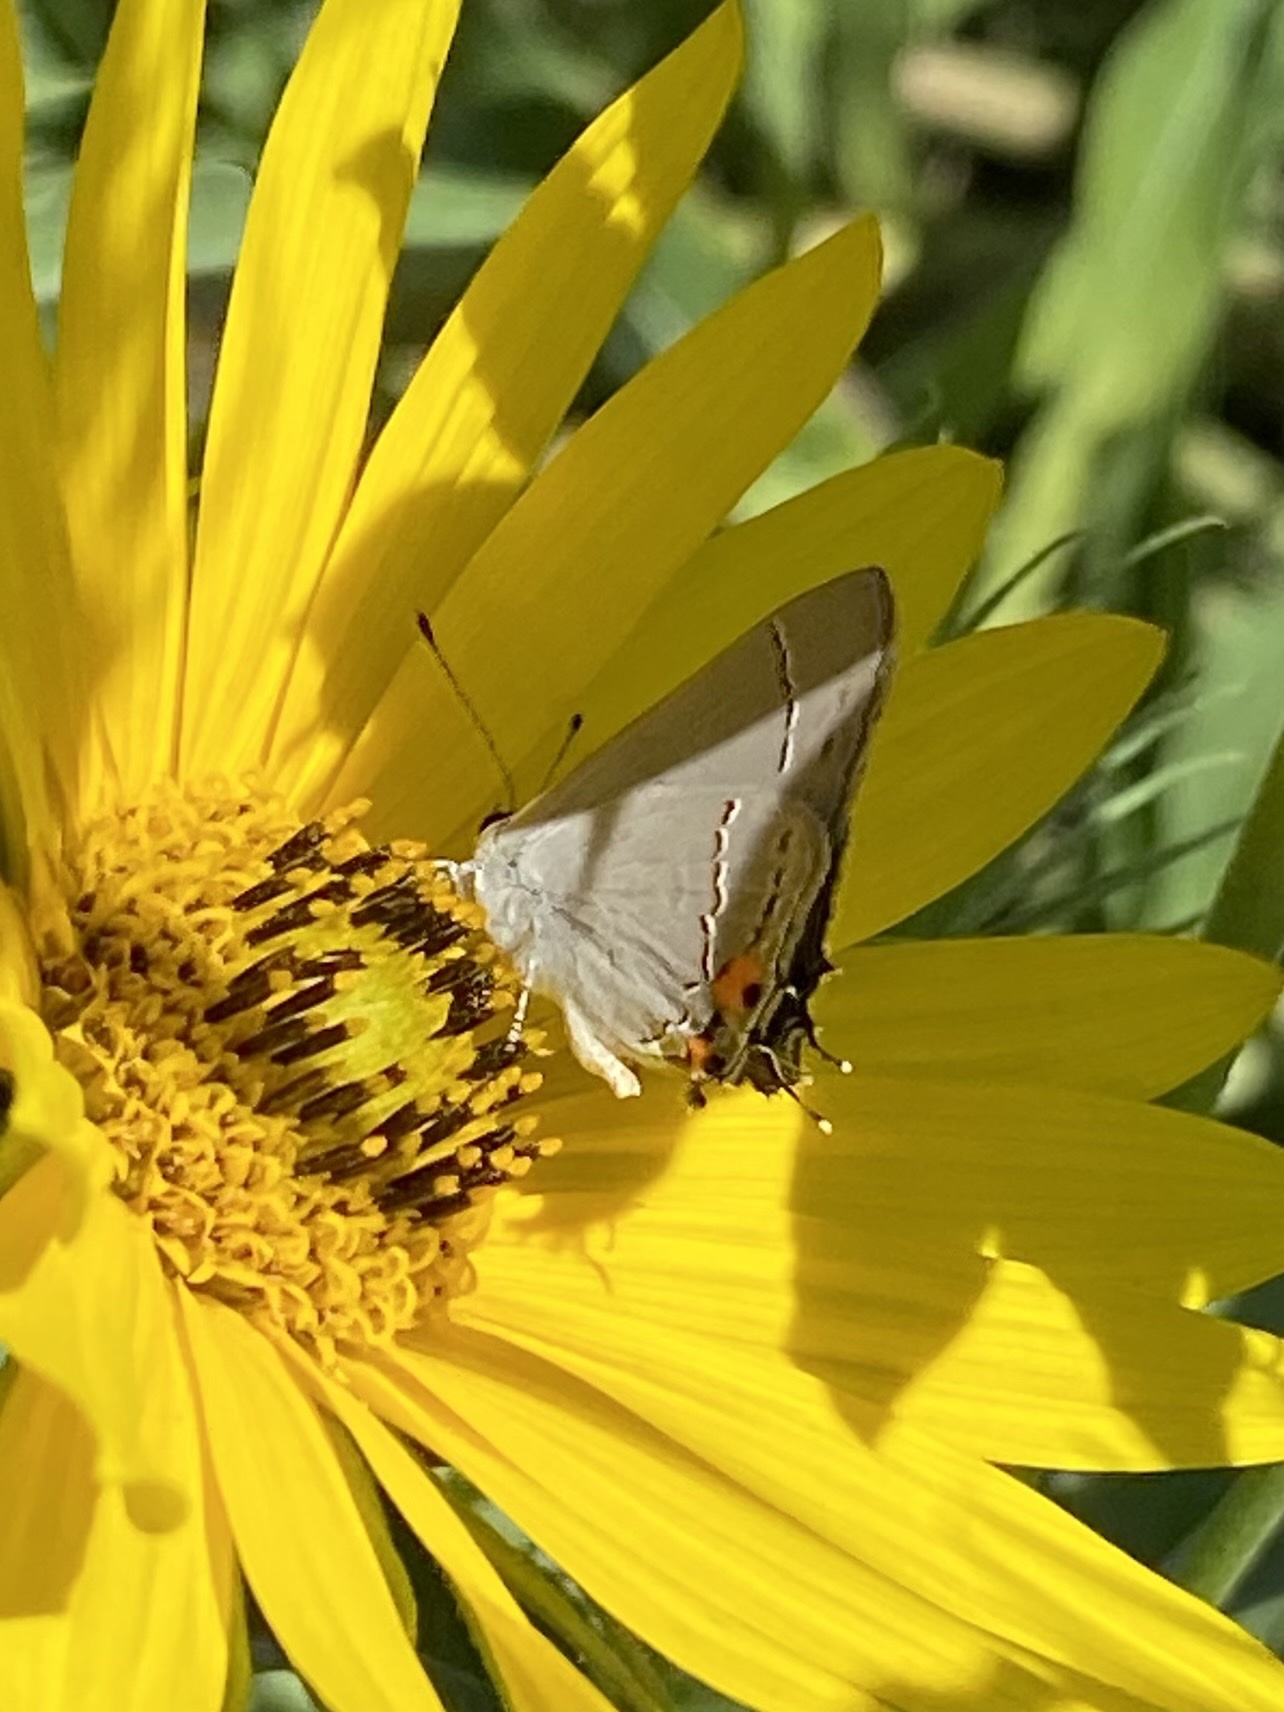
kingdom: Animalia
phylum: Arthropoda
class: Insecta
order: Lepidoptera
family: Lycaenidae
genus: Strymon
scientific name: Strymon melinus
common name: Gray hairstreak
